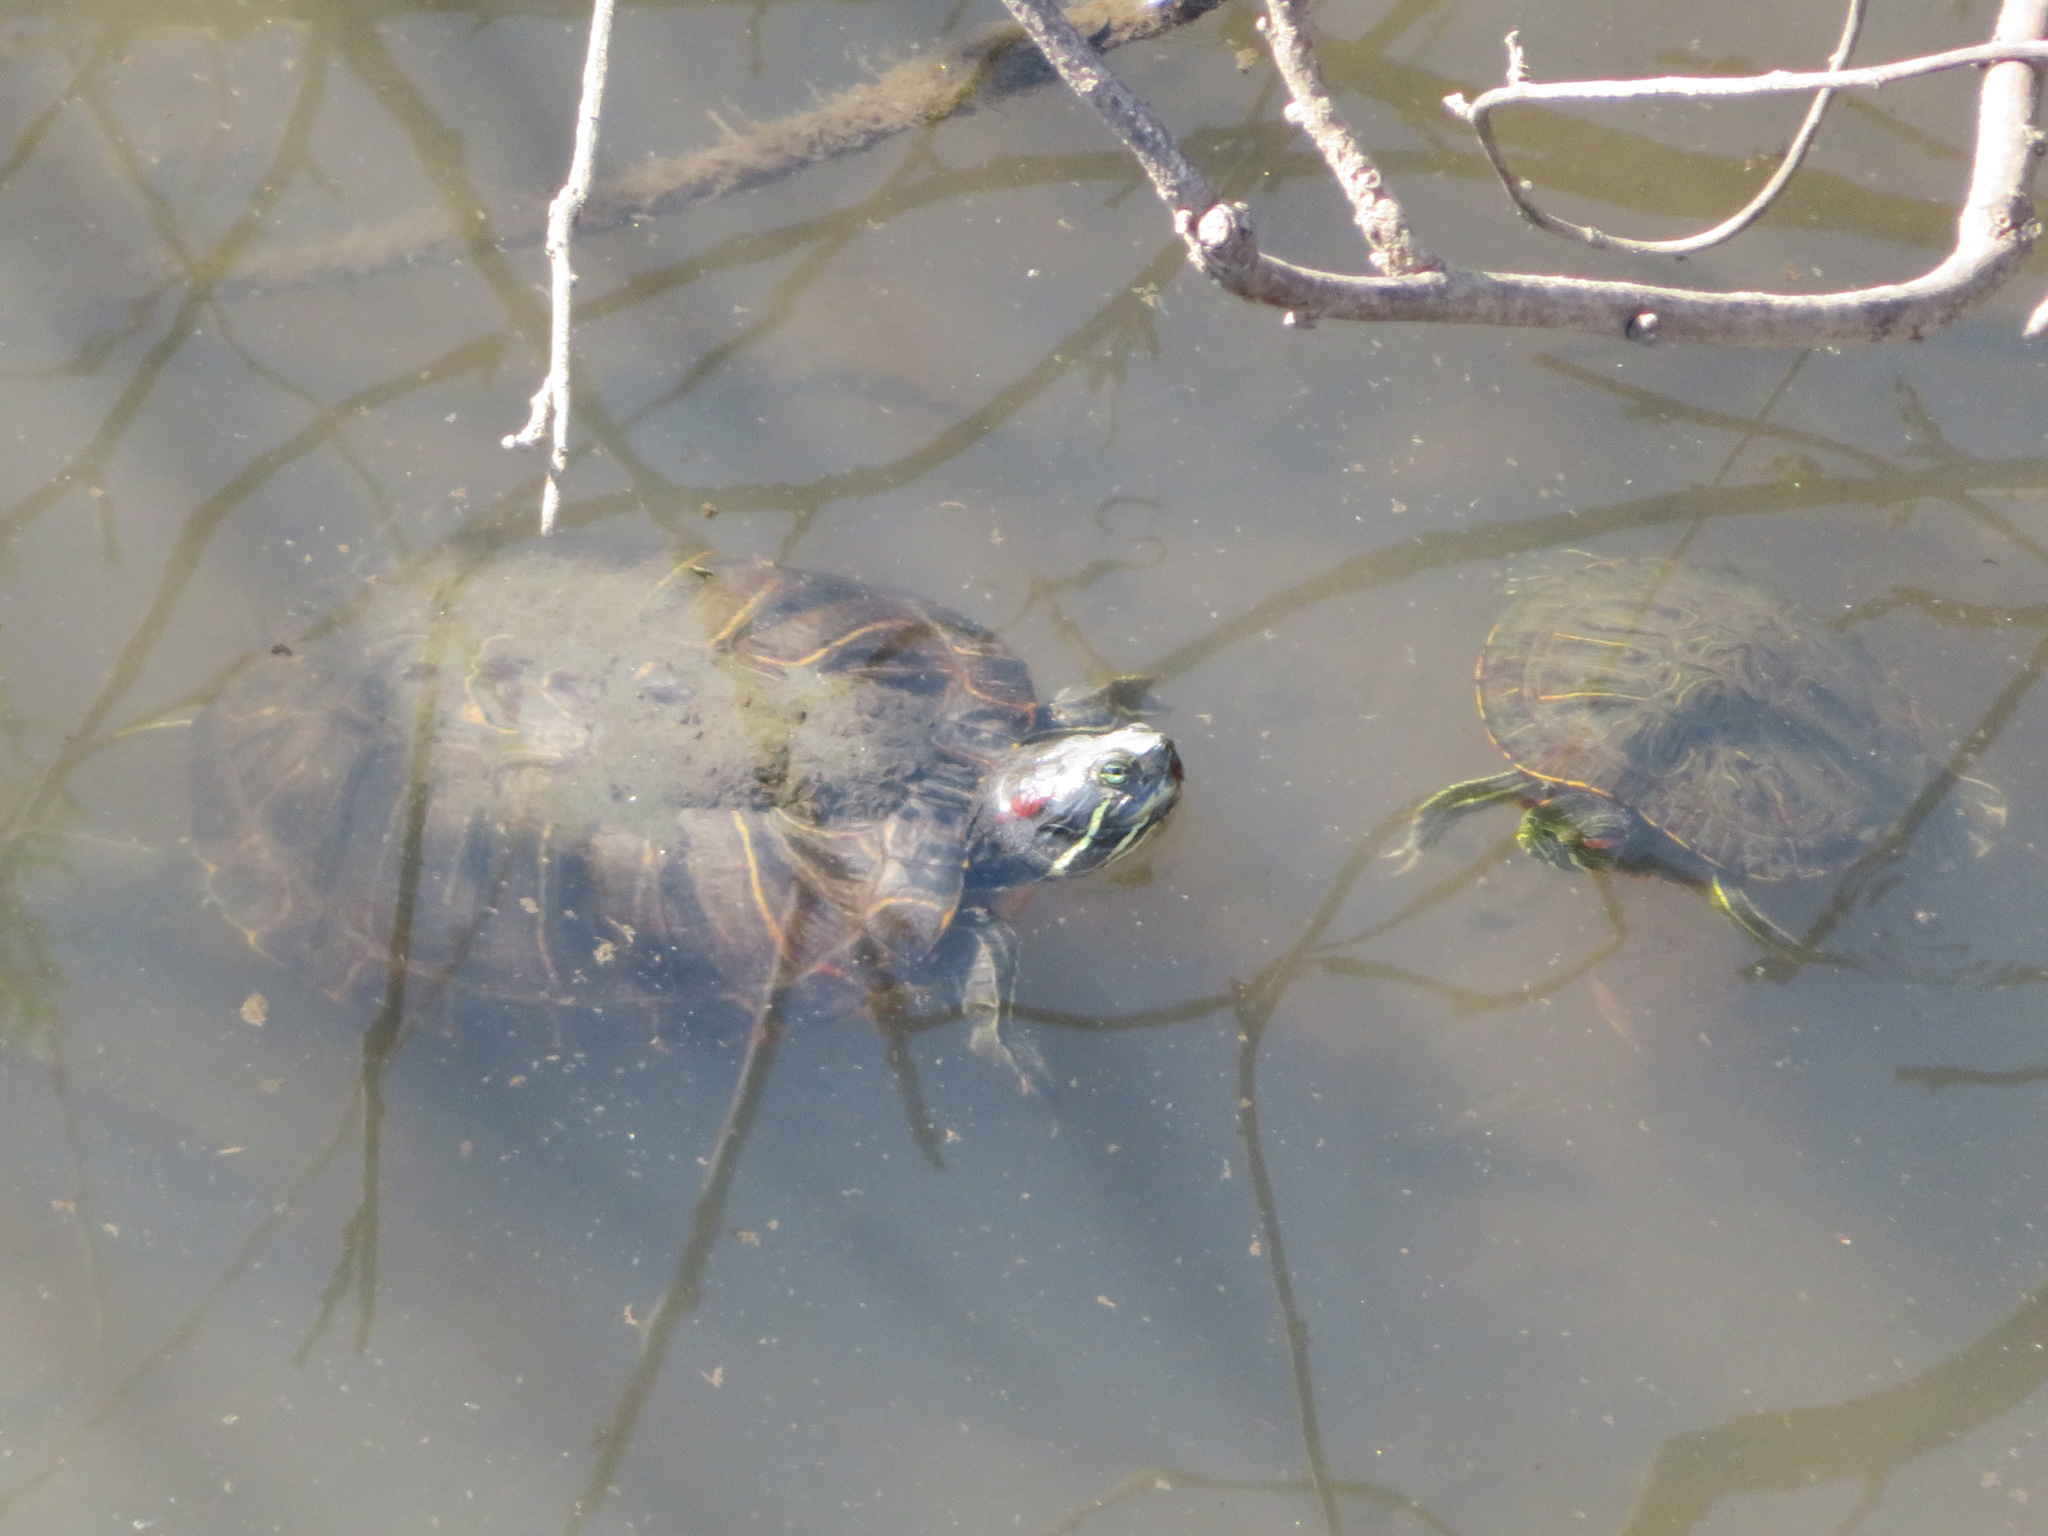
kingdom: Animalia
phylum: Chordata
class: Testudines
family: Emydidae
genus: Trachemys
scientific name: Trachemys scripta
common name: Slider
